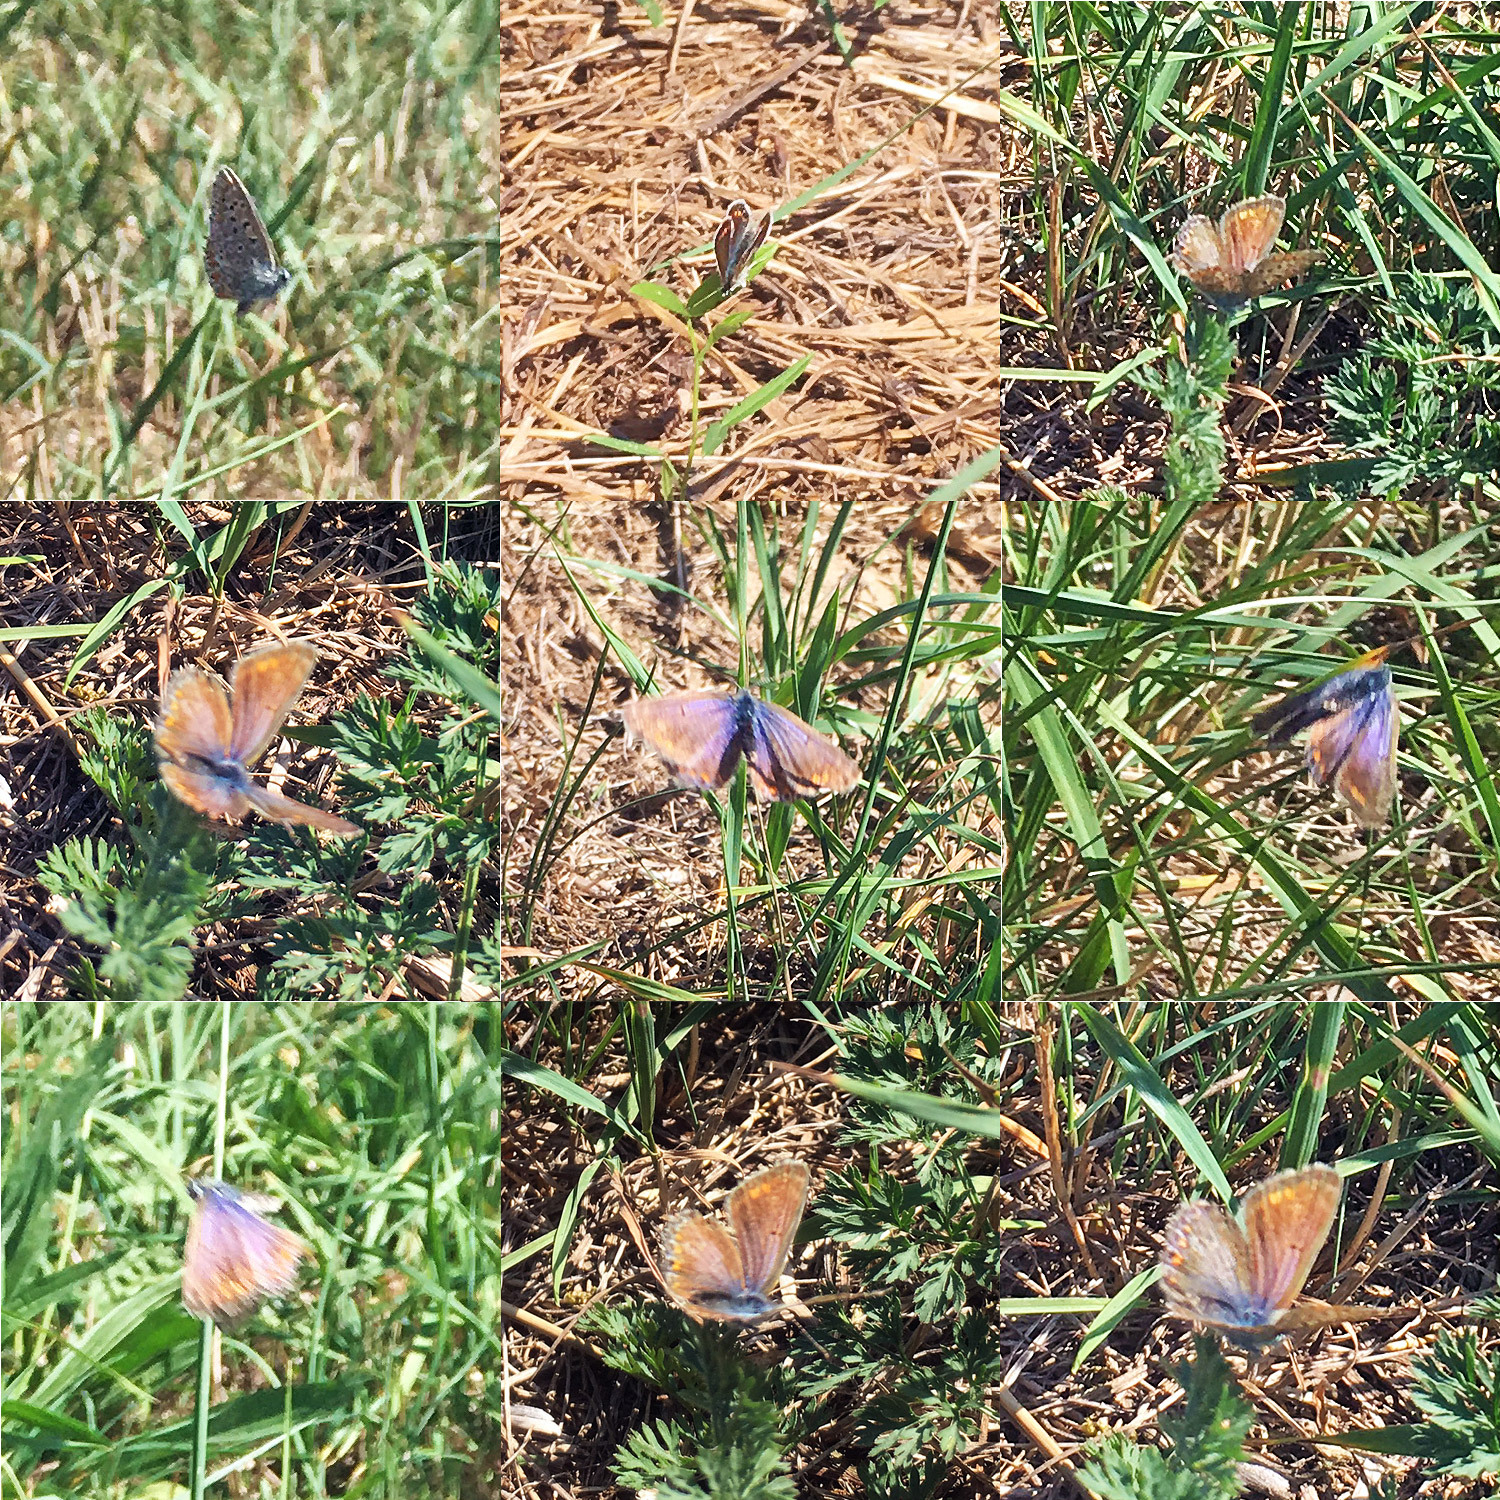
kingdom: Animalia
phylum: Arthropoda
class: Insecta
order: Lepidoptera
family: Lycaenidae
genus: Polyommatus
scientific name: Polyommatus icarus
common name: Common blue
